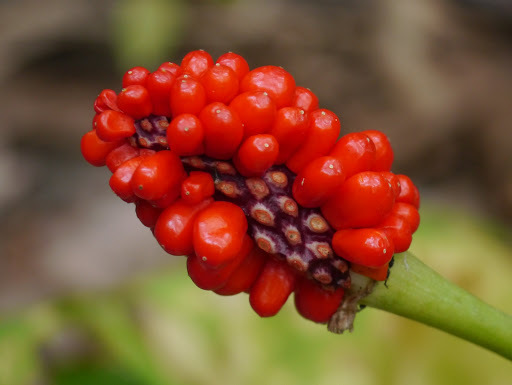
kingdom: Plantae
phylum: Tracheophyta
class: Liliopsida
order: Alismatales
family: Araceae
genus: Arisaema
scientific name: Arisaema triphyllum
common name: Jack-in-the-pulpit
